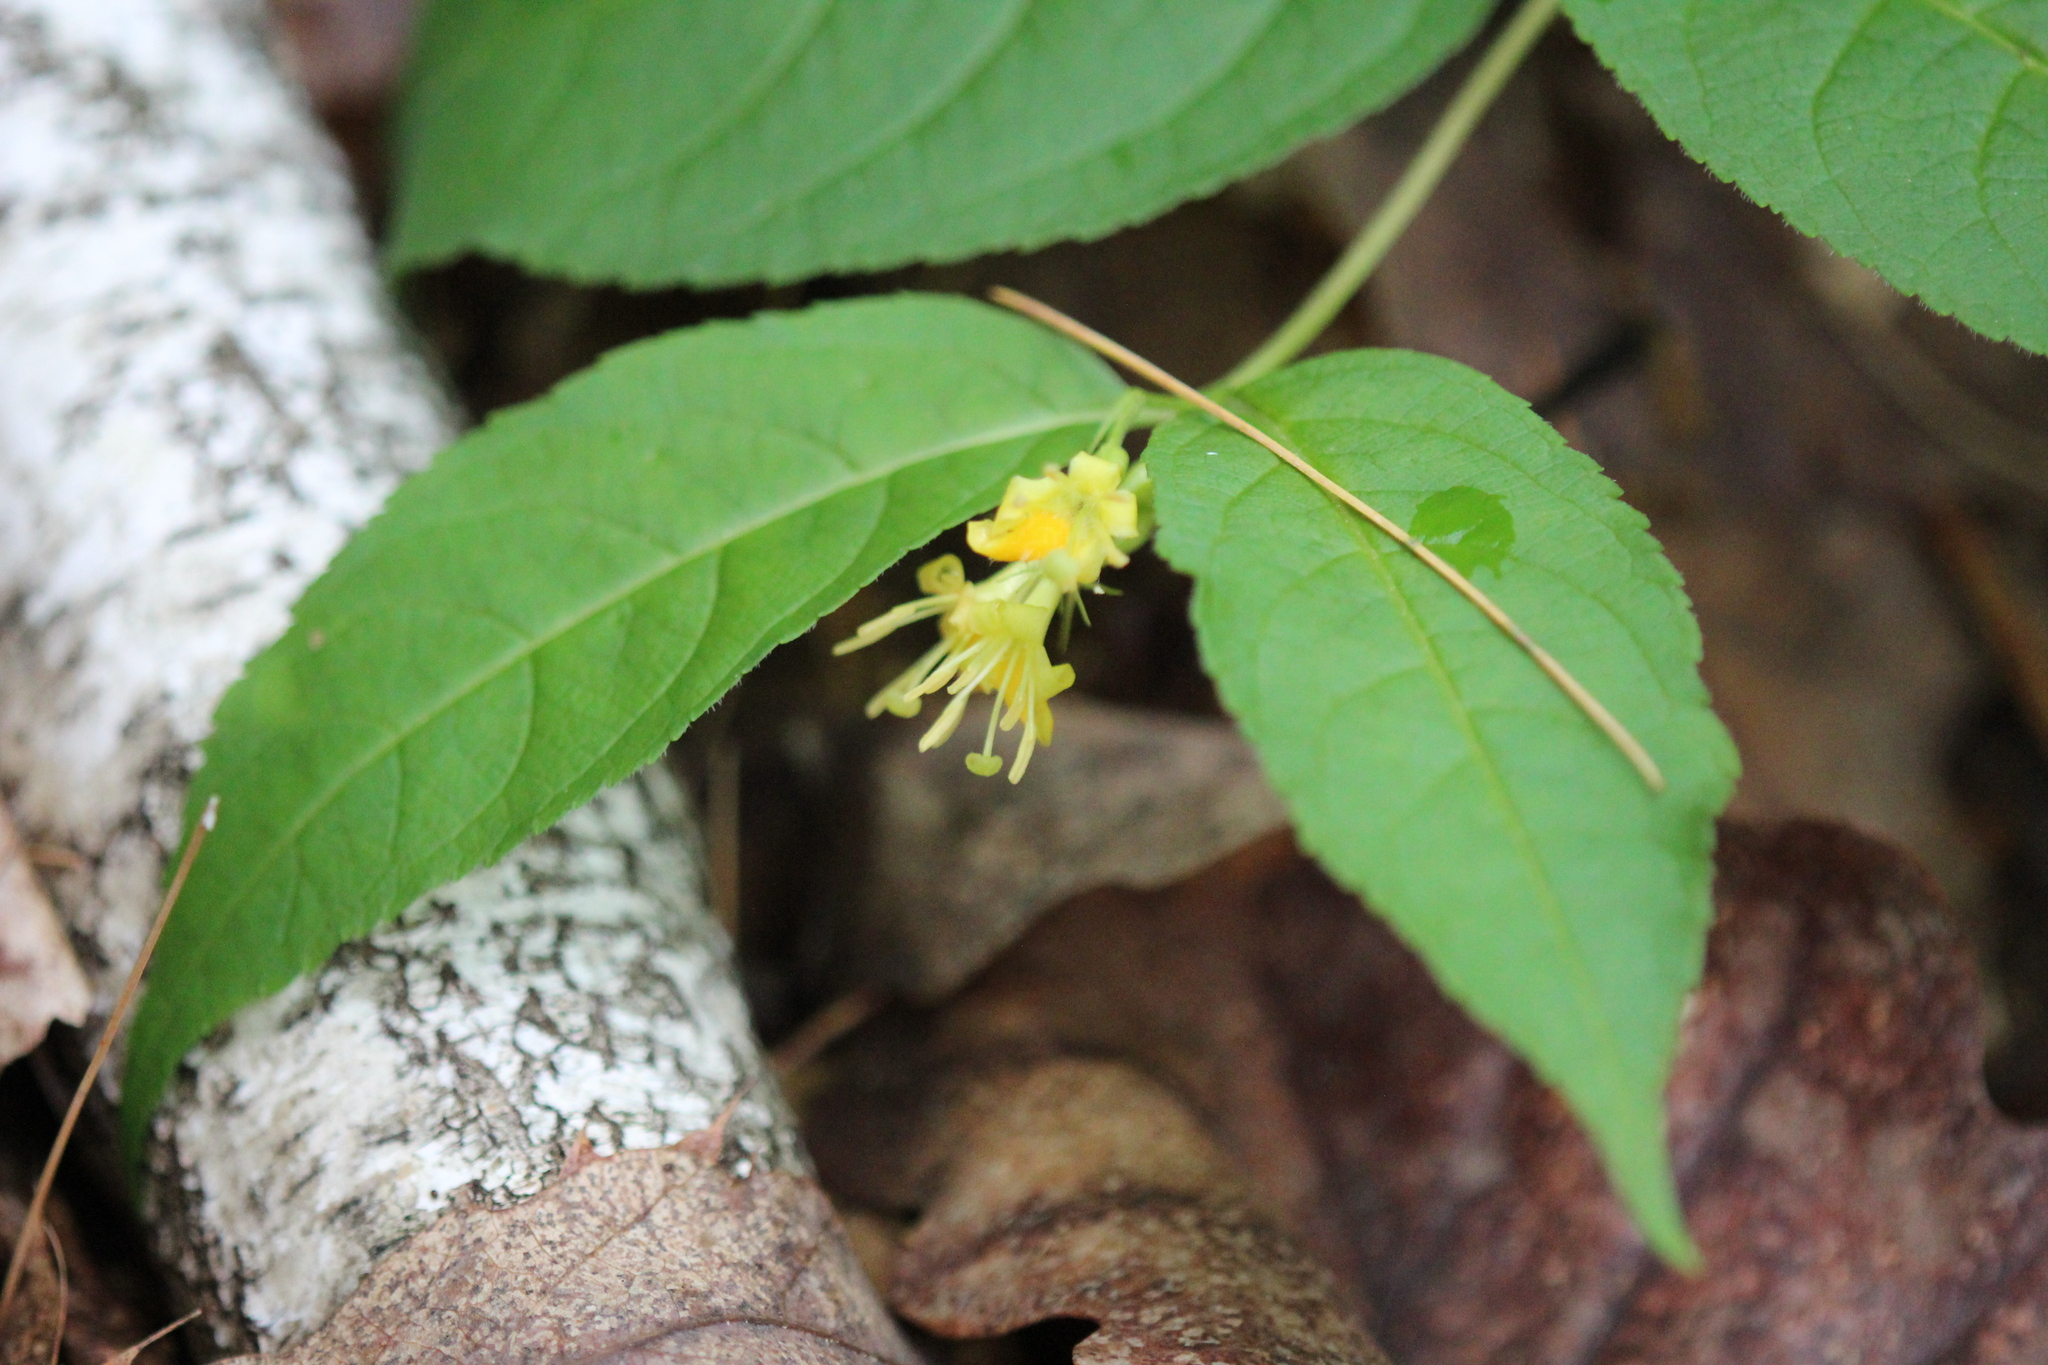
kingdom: Plantae
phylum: Tracheophyta
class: Magnoliopsida
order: Dipsacales
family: Caprifoliaceae
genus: Diervilla
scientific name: Diervilla lonicera
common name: Bush-honeysuckle
